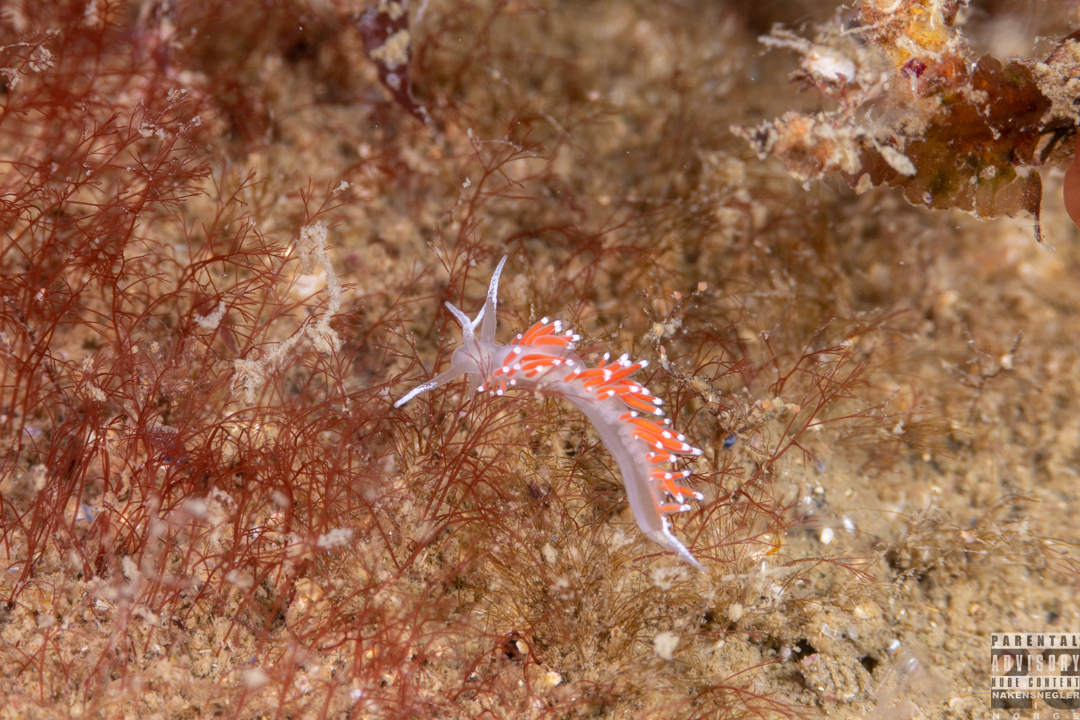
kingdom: Animalia
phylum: Mollusca
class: Gastropoda
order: Nudibranchia
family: Coryphellidae
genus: Coryphella
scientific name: Coryphella gracilis
